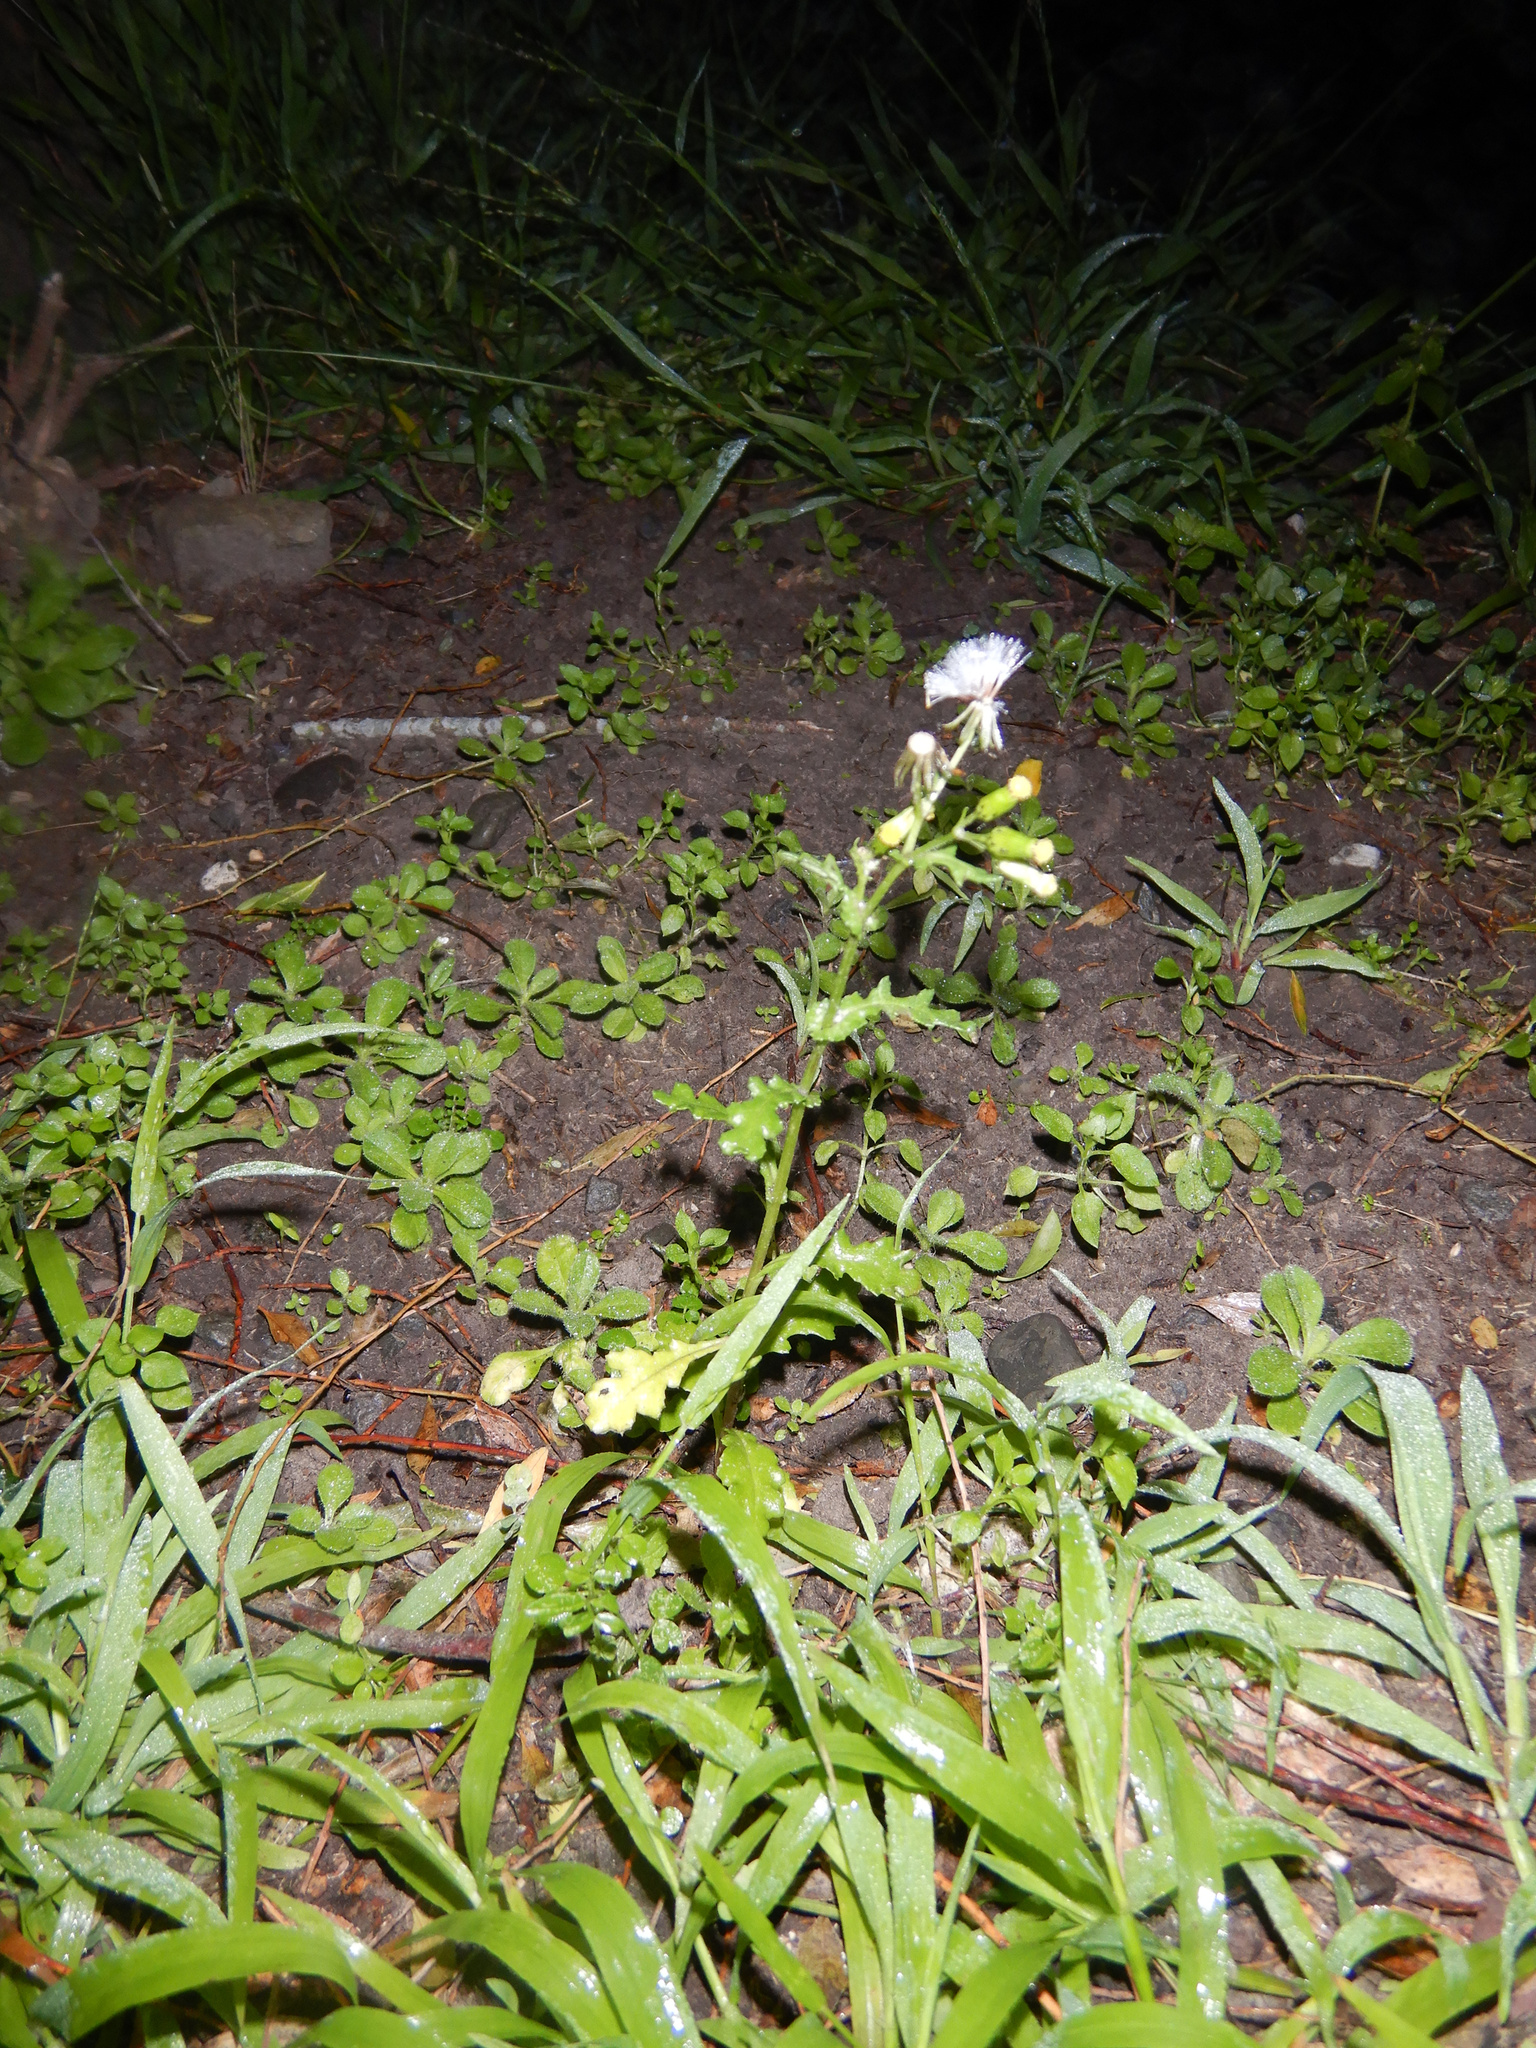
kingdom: Plantae
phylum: Tracheophyta
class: Magnoliopsida
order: Asterales
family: Asteraceae
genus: Senecio
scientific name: Senecio vulgaris
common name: Old-man-in-the-spring
